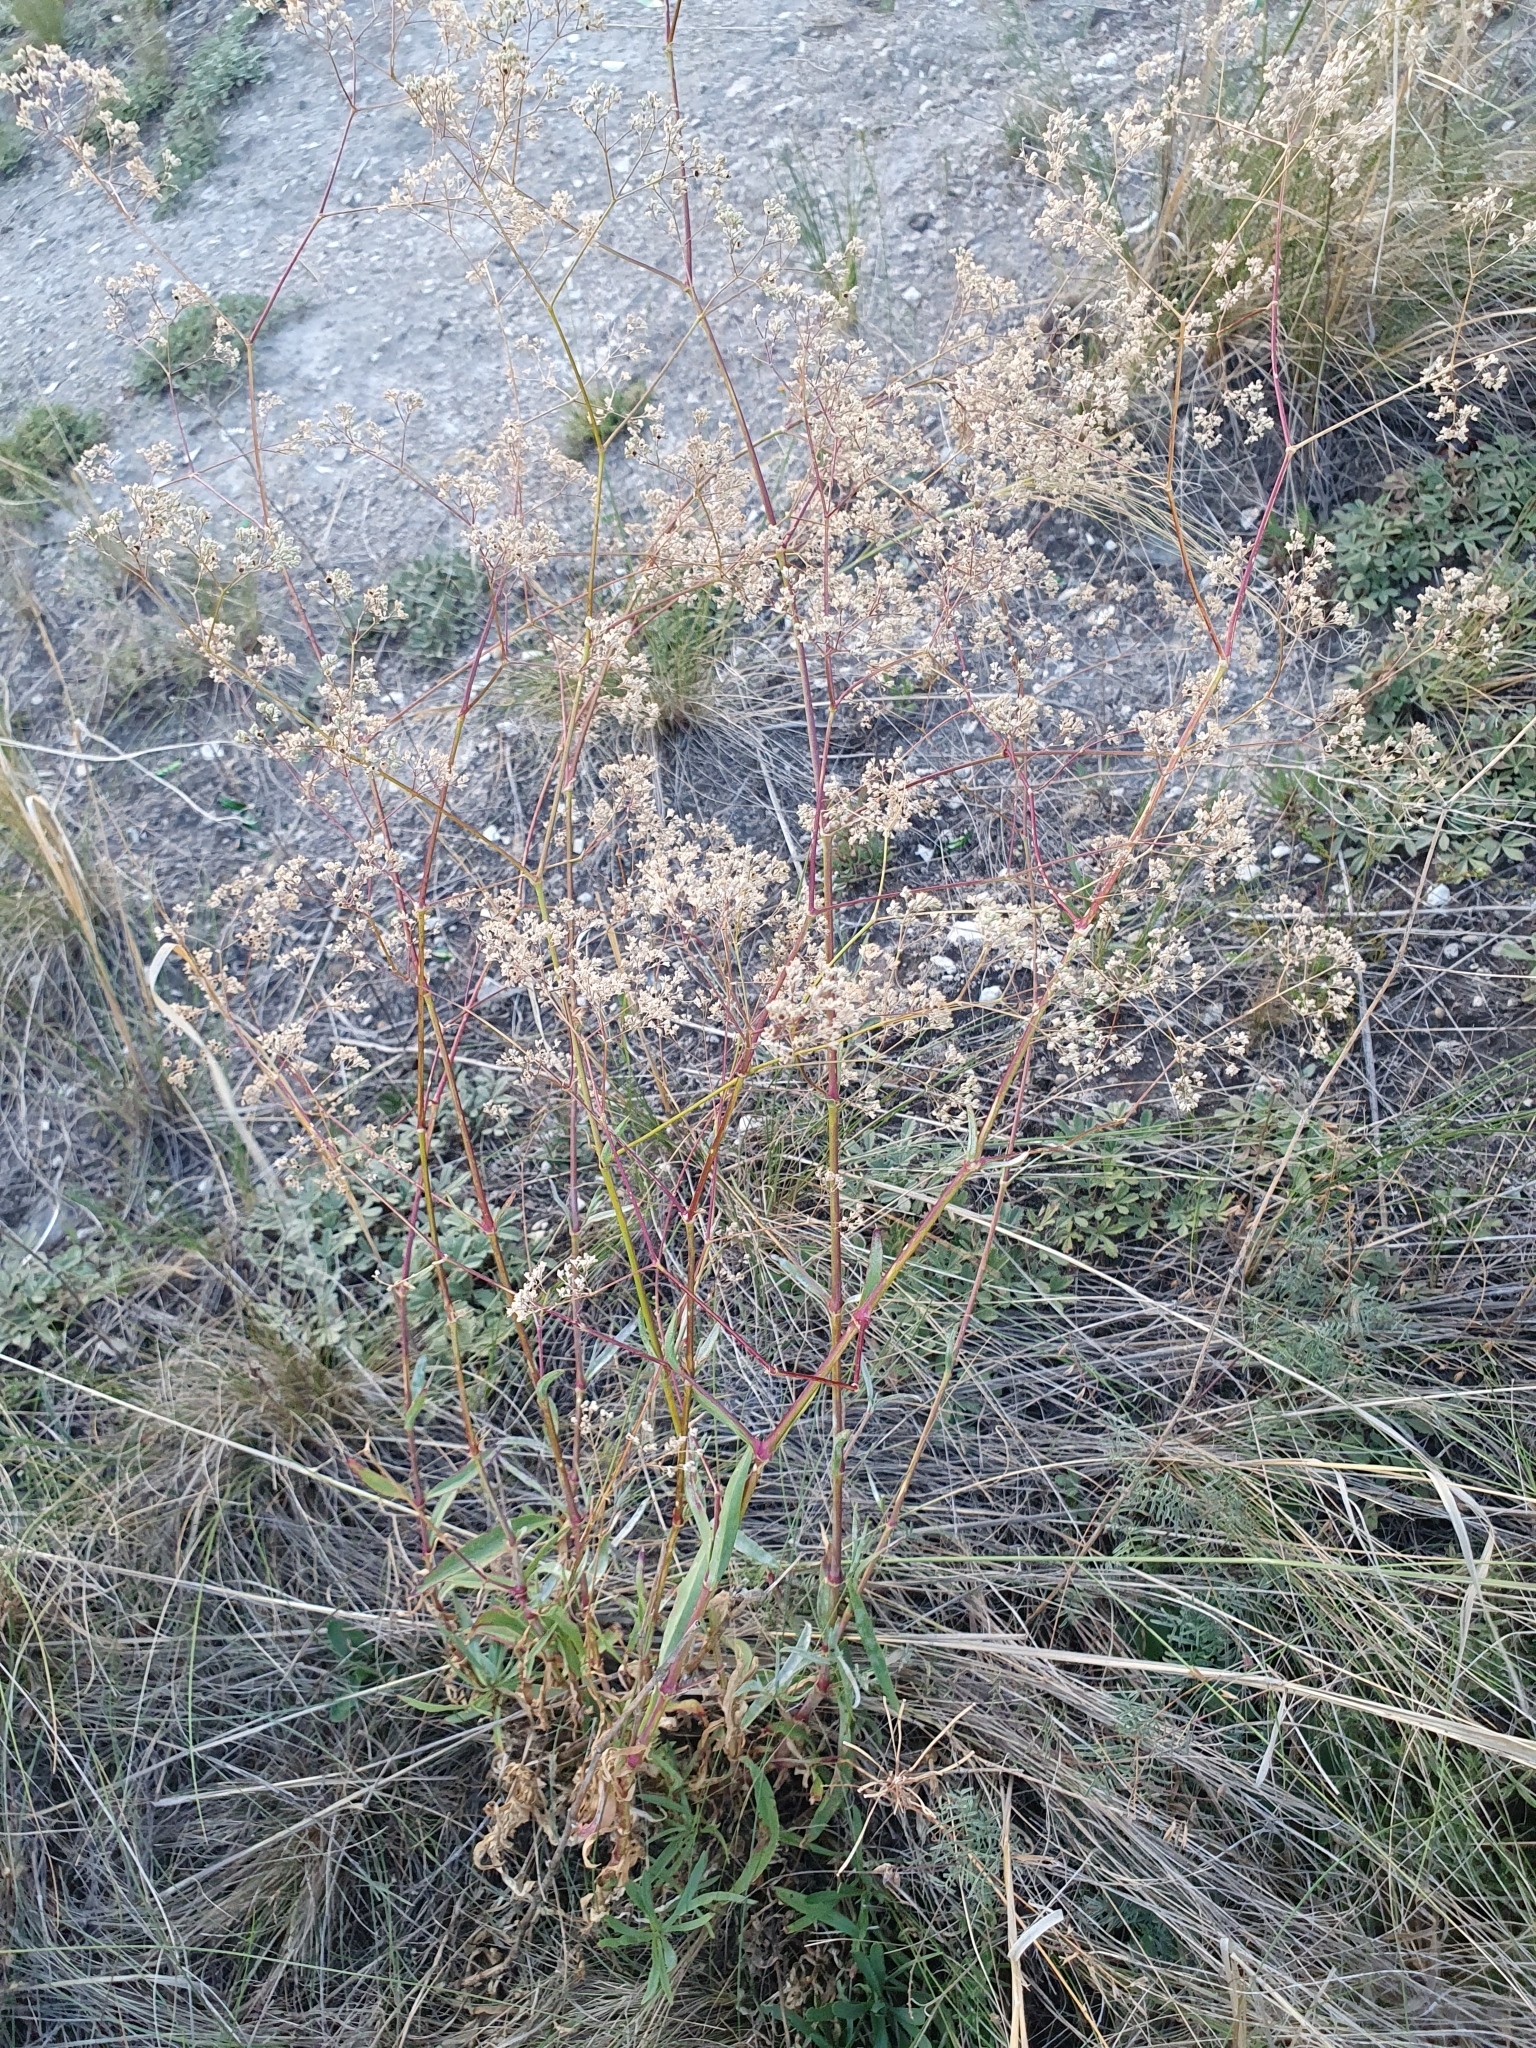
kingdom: Plantae
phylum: Tracheophyta
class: Magnoliopsida
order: Caryophyllales
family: Caryophyllaceae
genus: Gypsophila
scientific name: Gypsophila altissima
